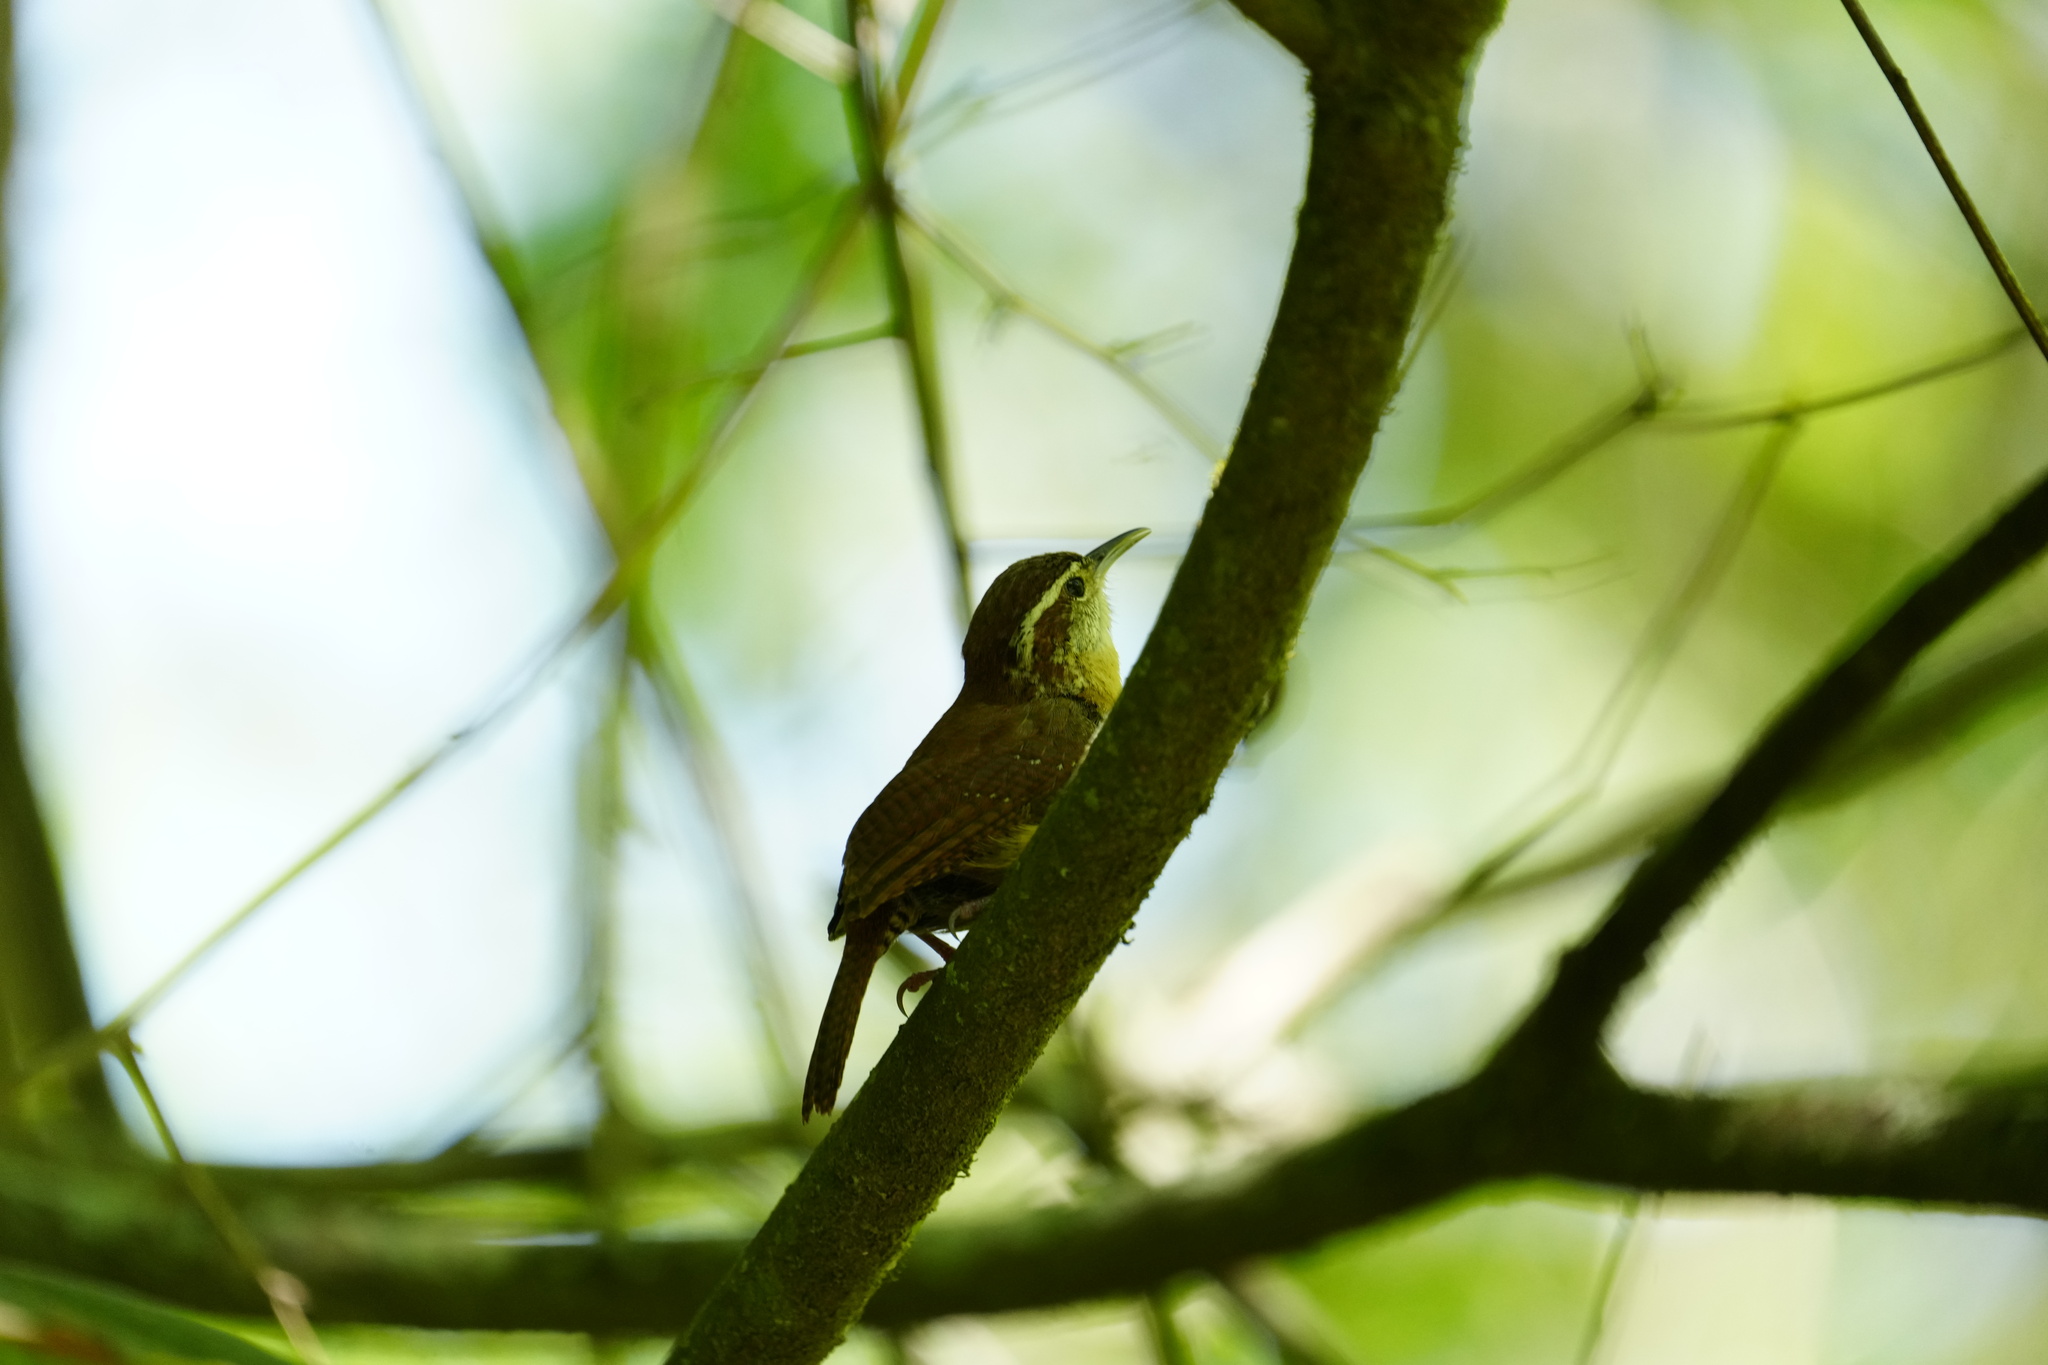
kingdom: Animalia
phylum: Chordata
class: Aves
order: Passeriformes
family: Troglodytidae
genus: Thryothorus
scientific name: Thryothorus ludovicianus
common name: Carolina wren
